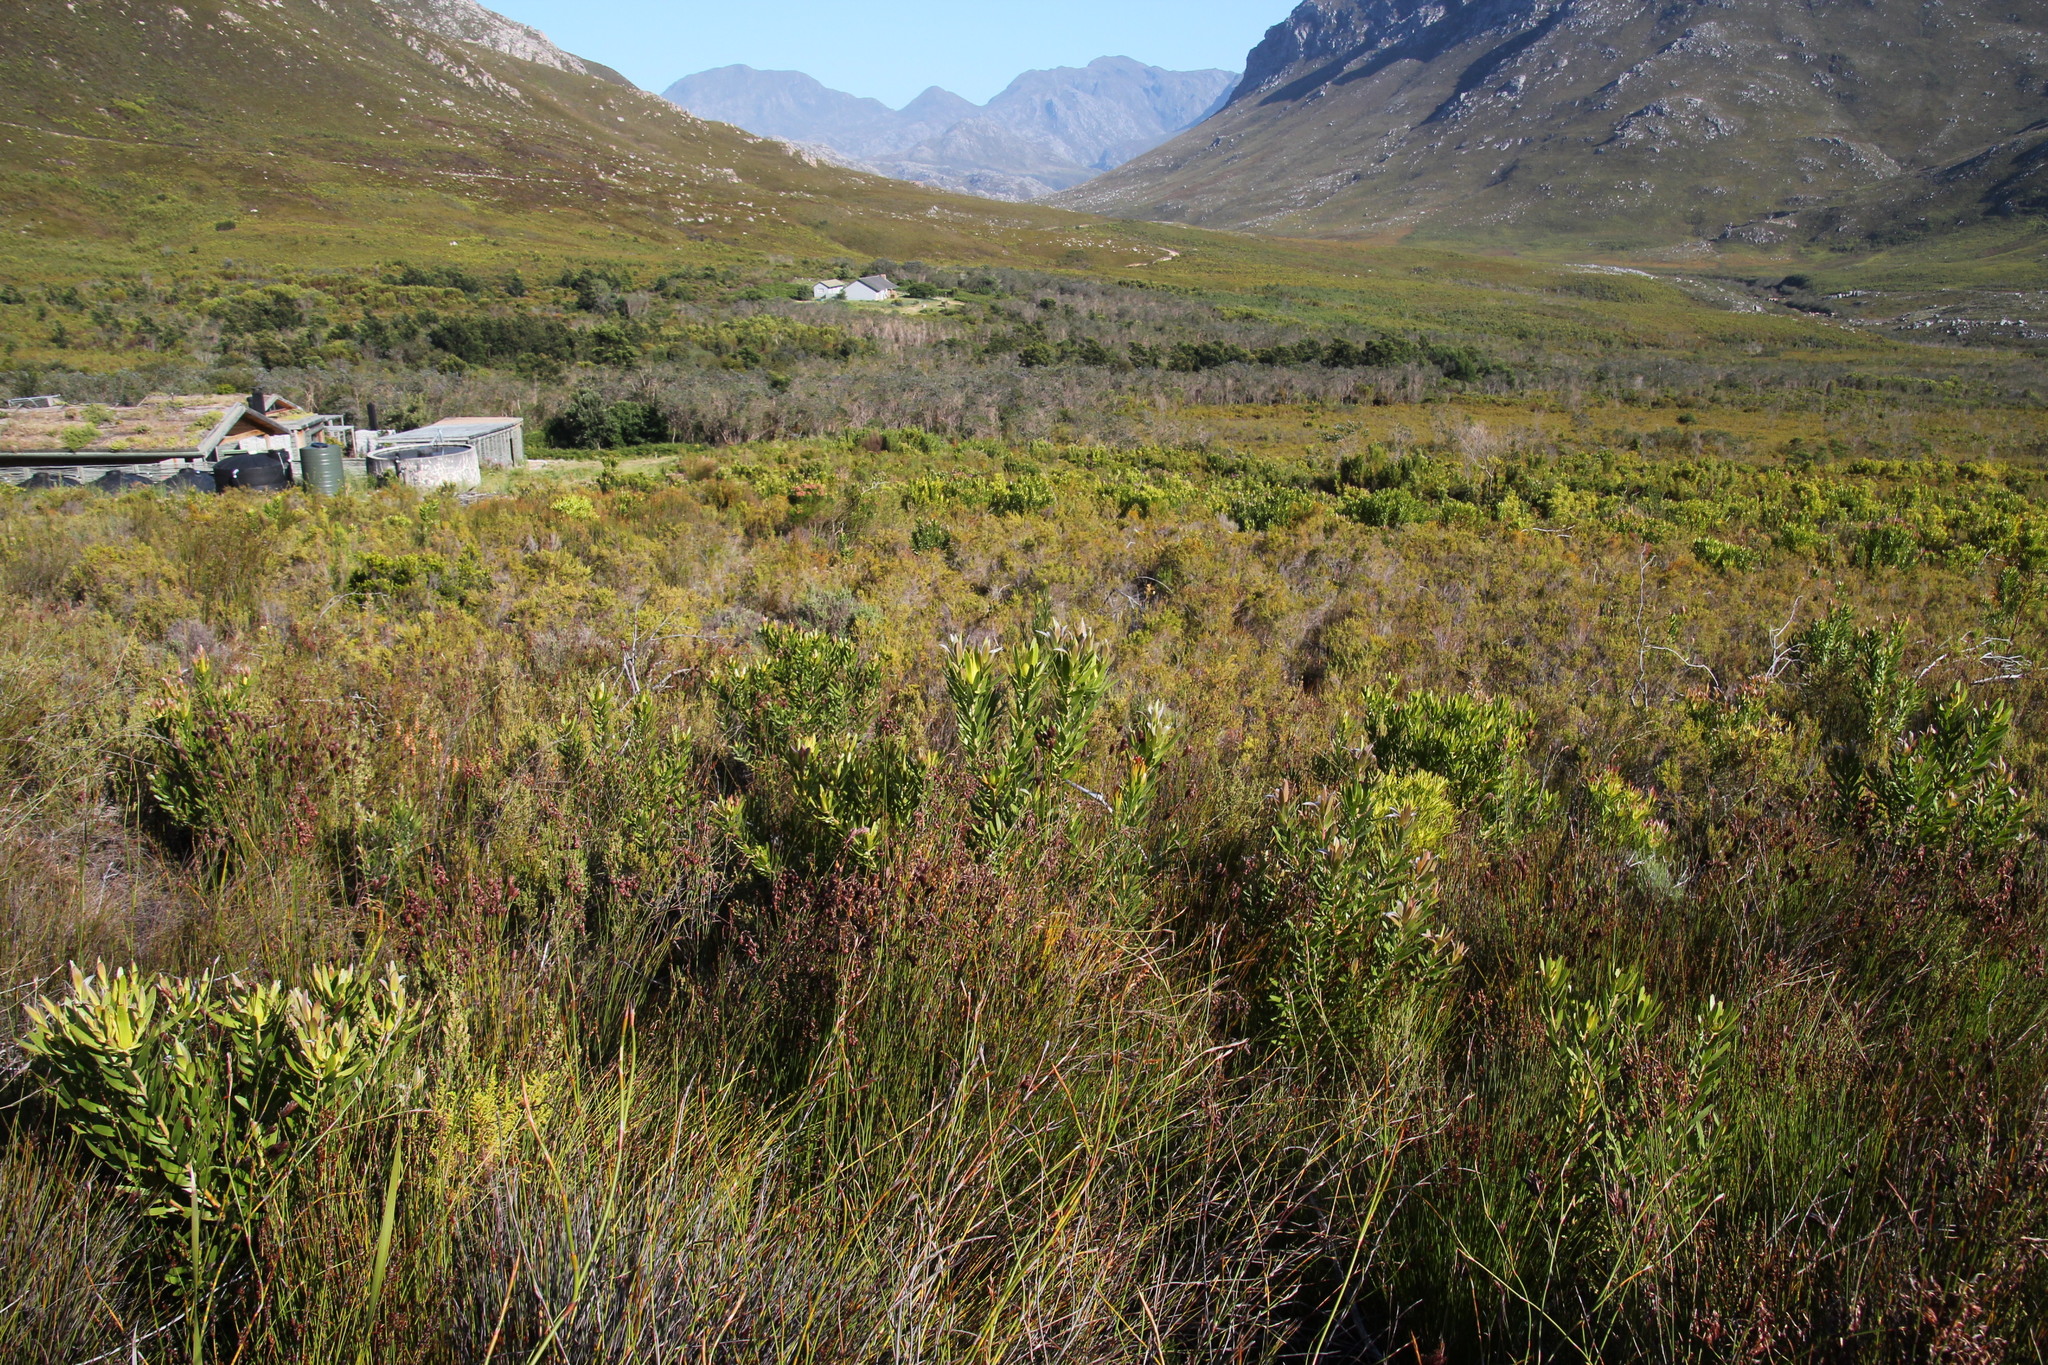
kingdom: Plantae
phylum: Tracheophyta
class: Magnoliopsida
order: Proteales
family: Proteaceae
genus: Leucadendron
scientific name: Leucadendron laureolum
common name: Golden sunshinebush
